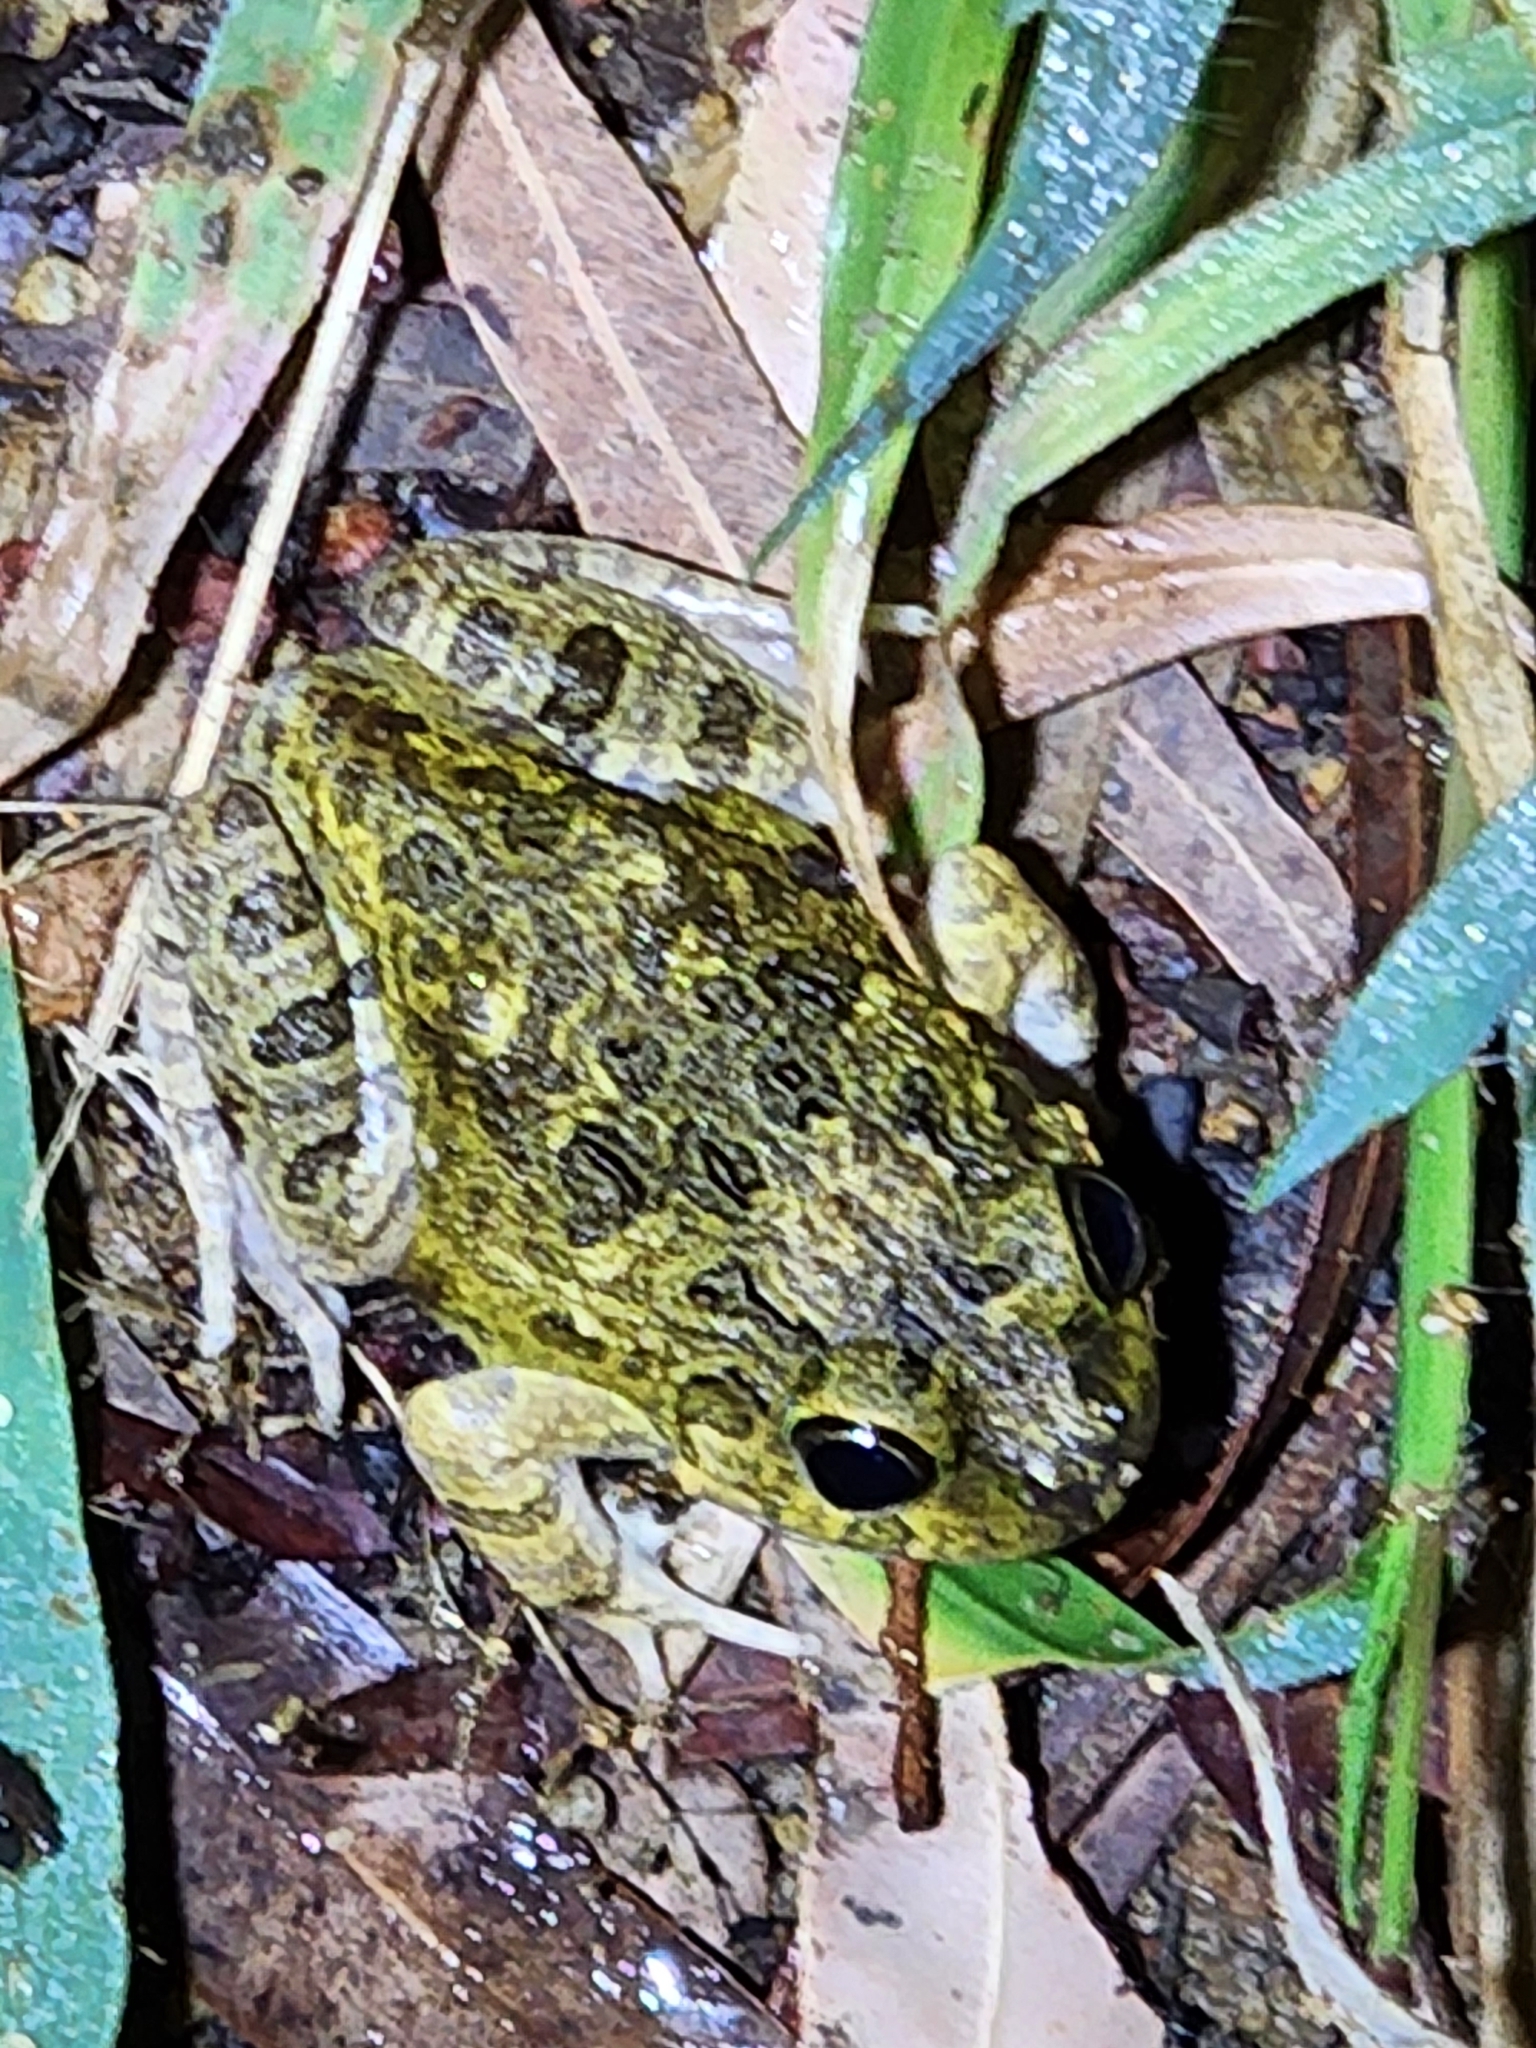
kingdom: Animalia
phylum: Chordata
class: Amphibia
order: Anura
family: Limnodynastidae
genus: Platyplectrum
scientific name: Platyplectrum ornatum
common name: Ornate burrowing frog
